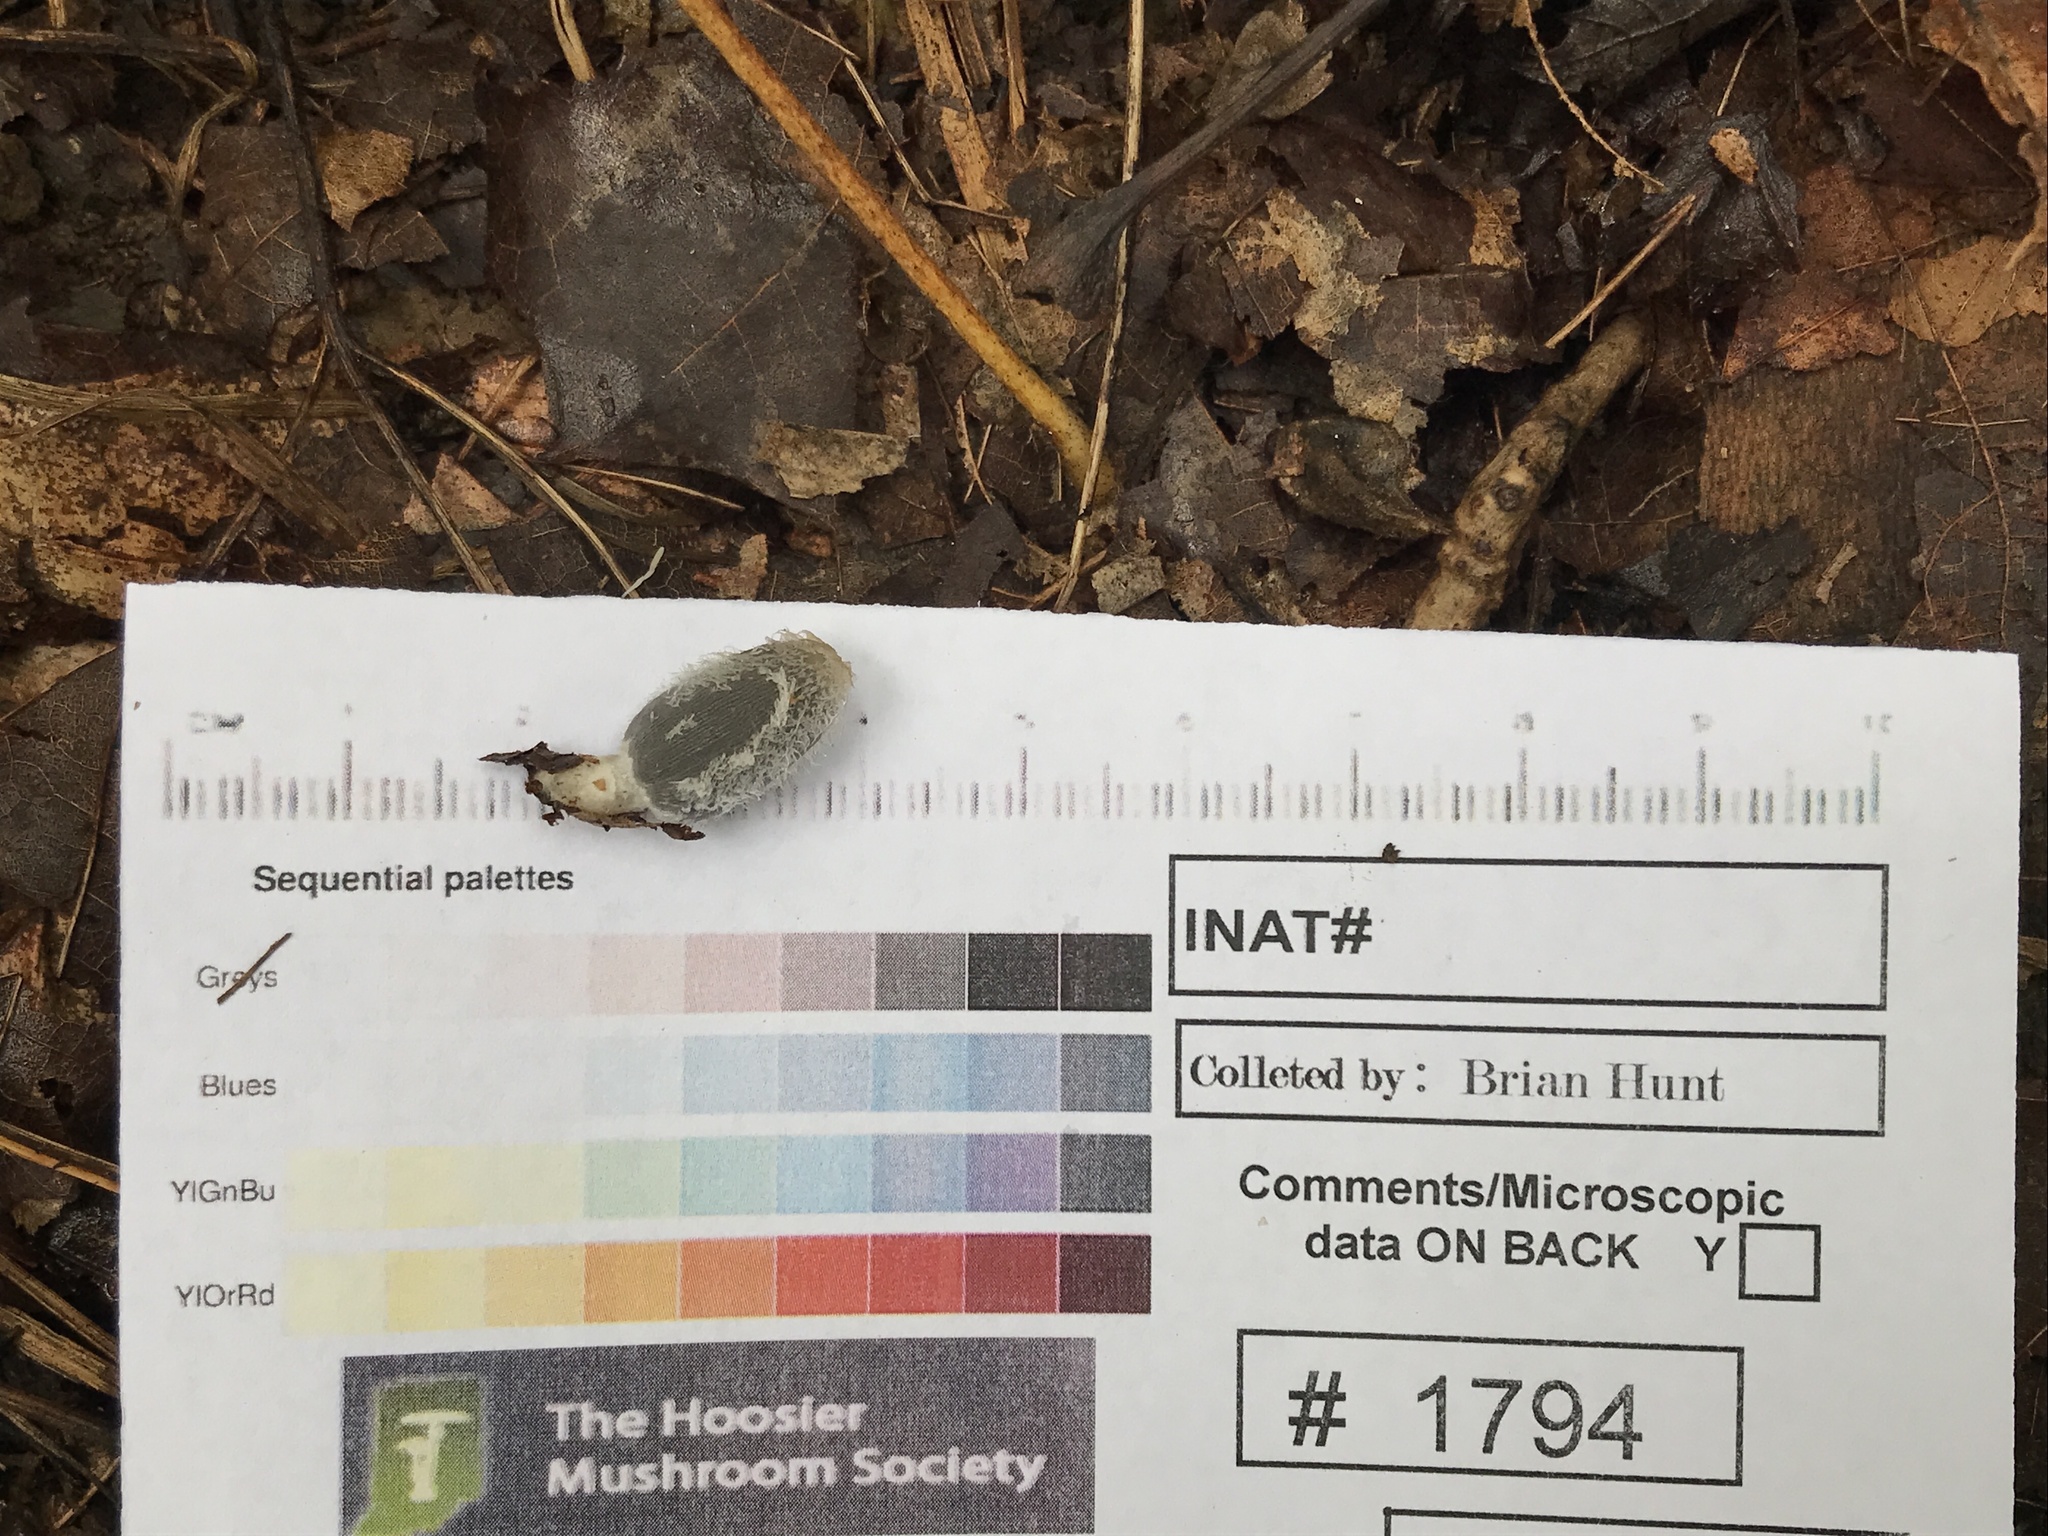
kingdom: Fungi
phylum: Basidiomycota
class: Agaricomycetes
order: Agaricales
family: Psathyrellaceae
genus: Coprinopsis
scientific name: Coprinopsis lagopus
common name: Hare'sfoot inkcap
